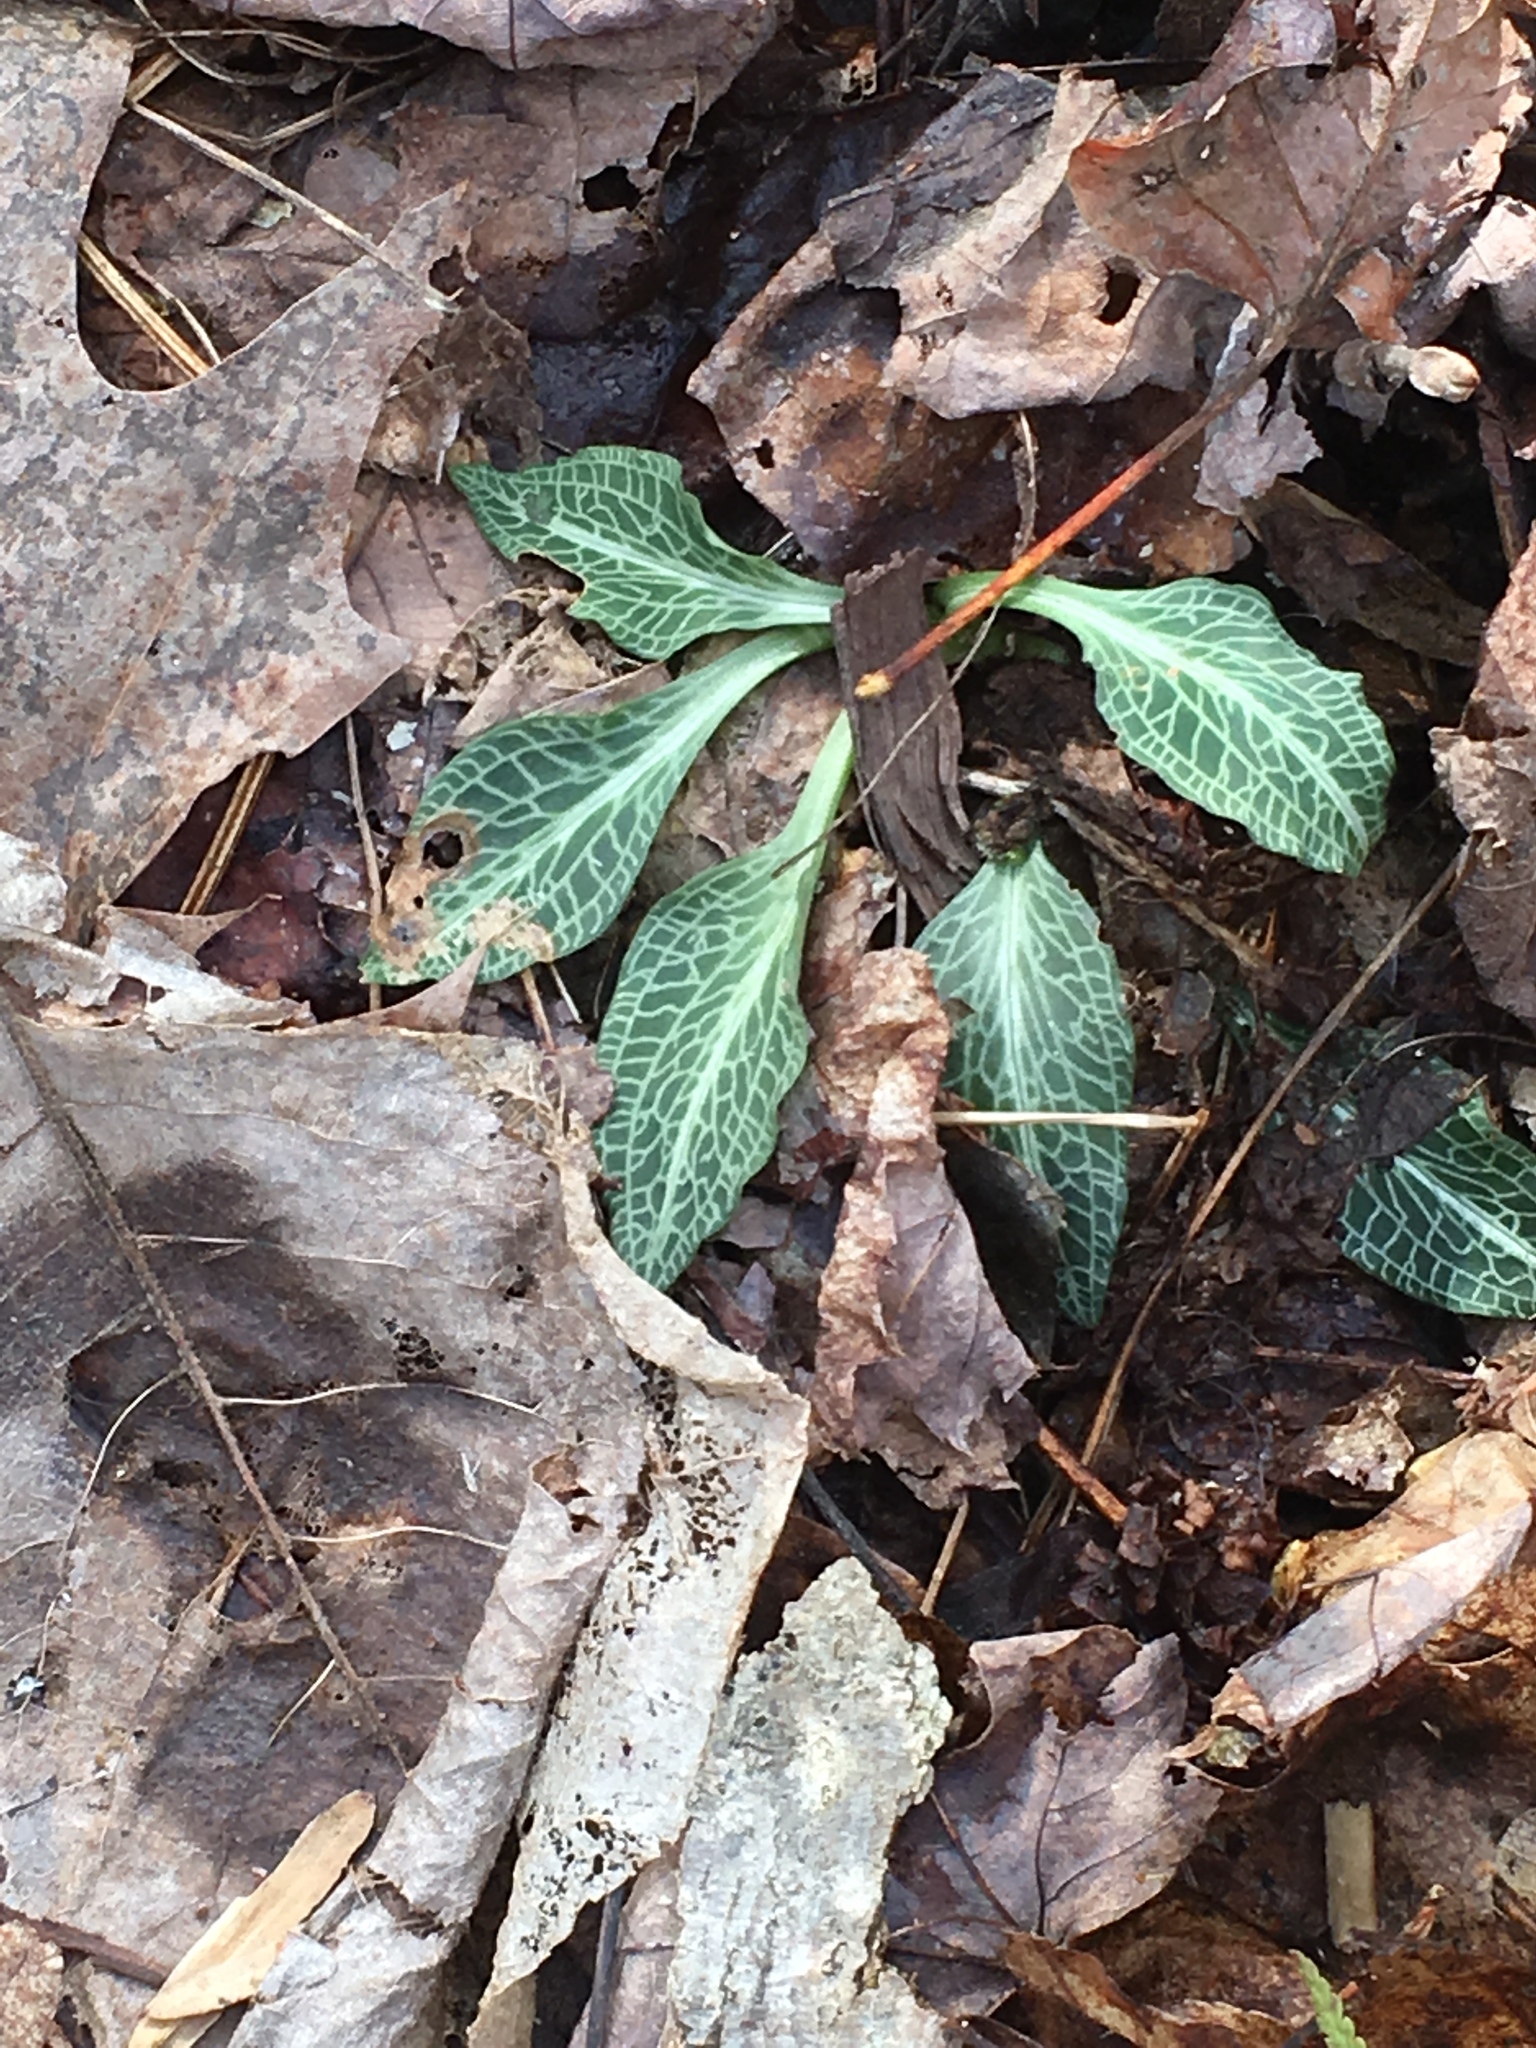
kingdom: Plantae
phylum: Tracheophyta
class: Liliopsida
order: Asparagales
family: Orchidaceae
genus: Goodyera
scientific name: Goodyera pubescens
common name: Downy rattlesnake-plantain
